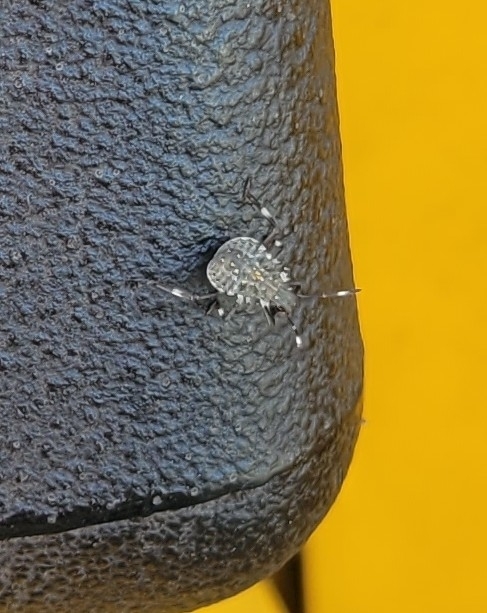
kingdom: Animalia
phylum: Arthropoda
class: Insecta
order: Hemiptera
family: Pentatomidae
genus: Halyomorpha
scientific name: Halyomorpha halys
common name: Brown marmorated stink bug
